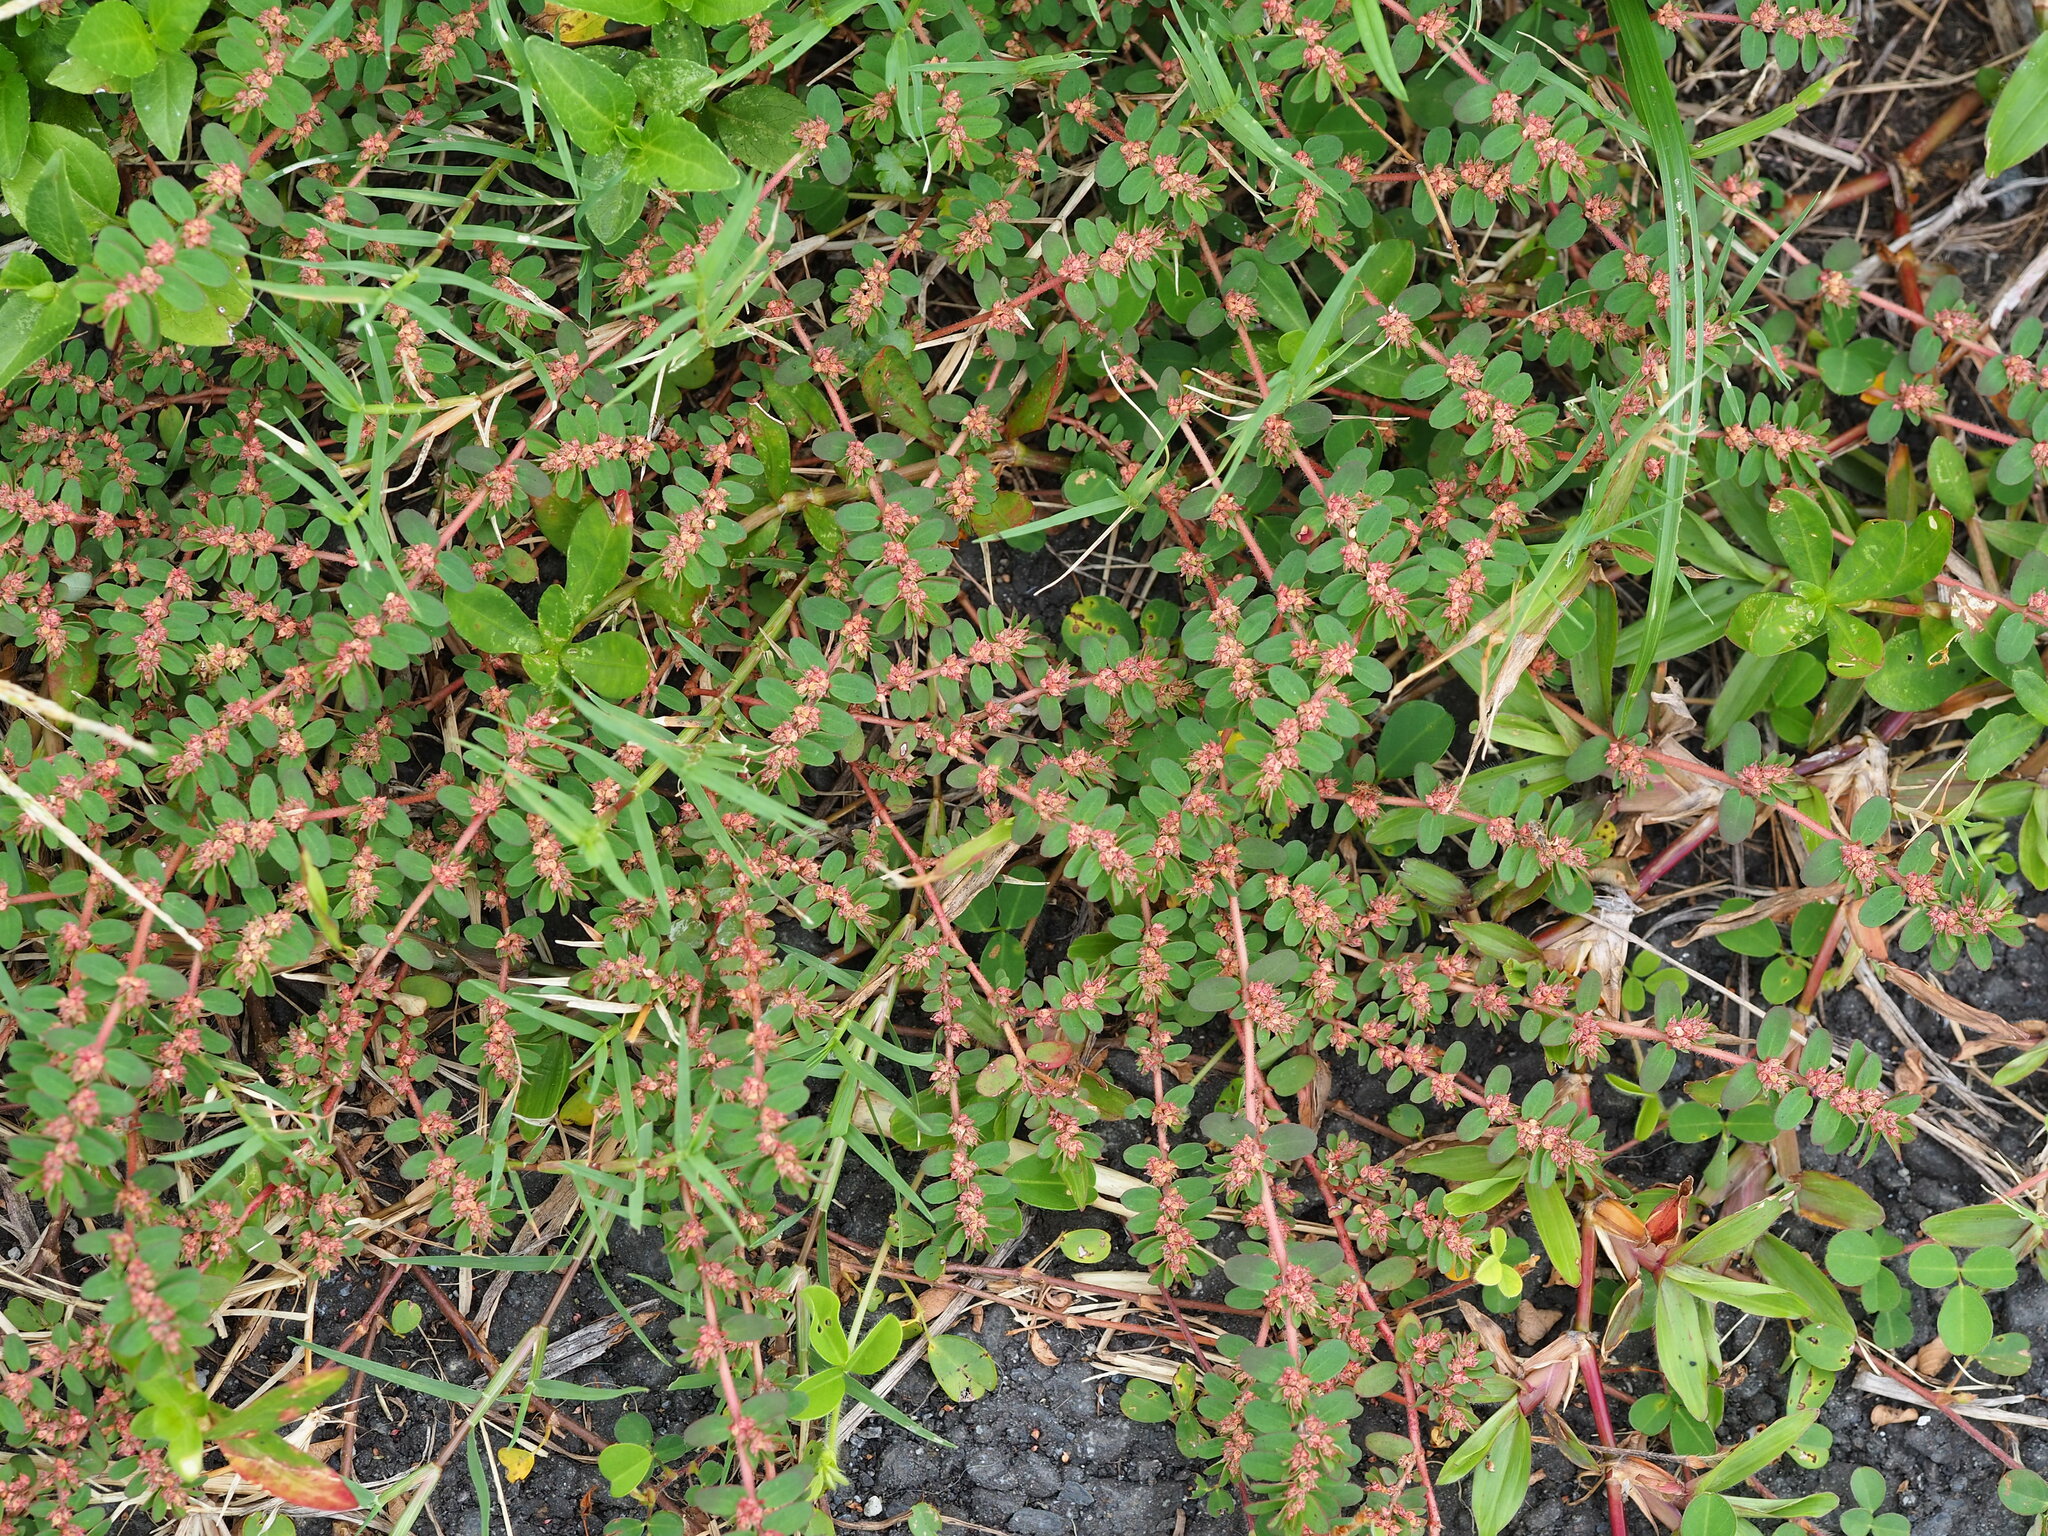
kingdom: Plantae
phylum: Tracheophyta
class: Magnoliopsida
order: Malpighiales
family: Euphorbiaceae
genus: Euphorbia
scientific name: Euphorbia thymifolia
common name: Gulf sandmat
